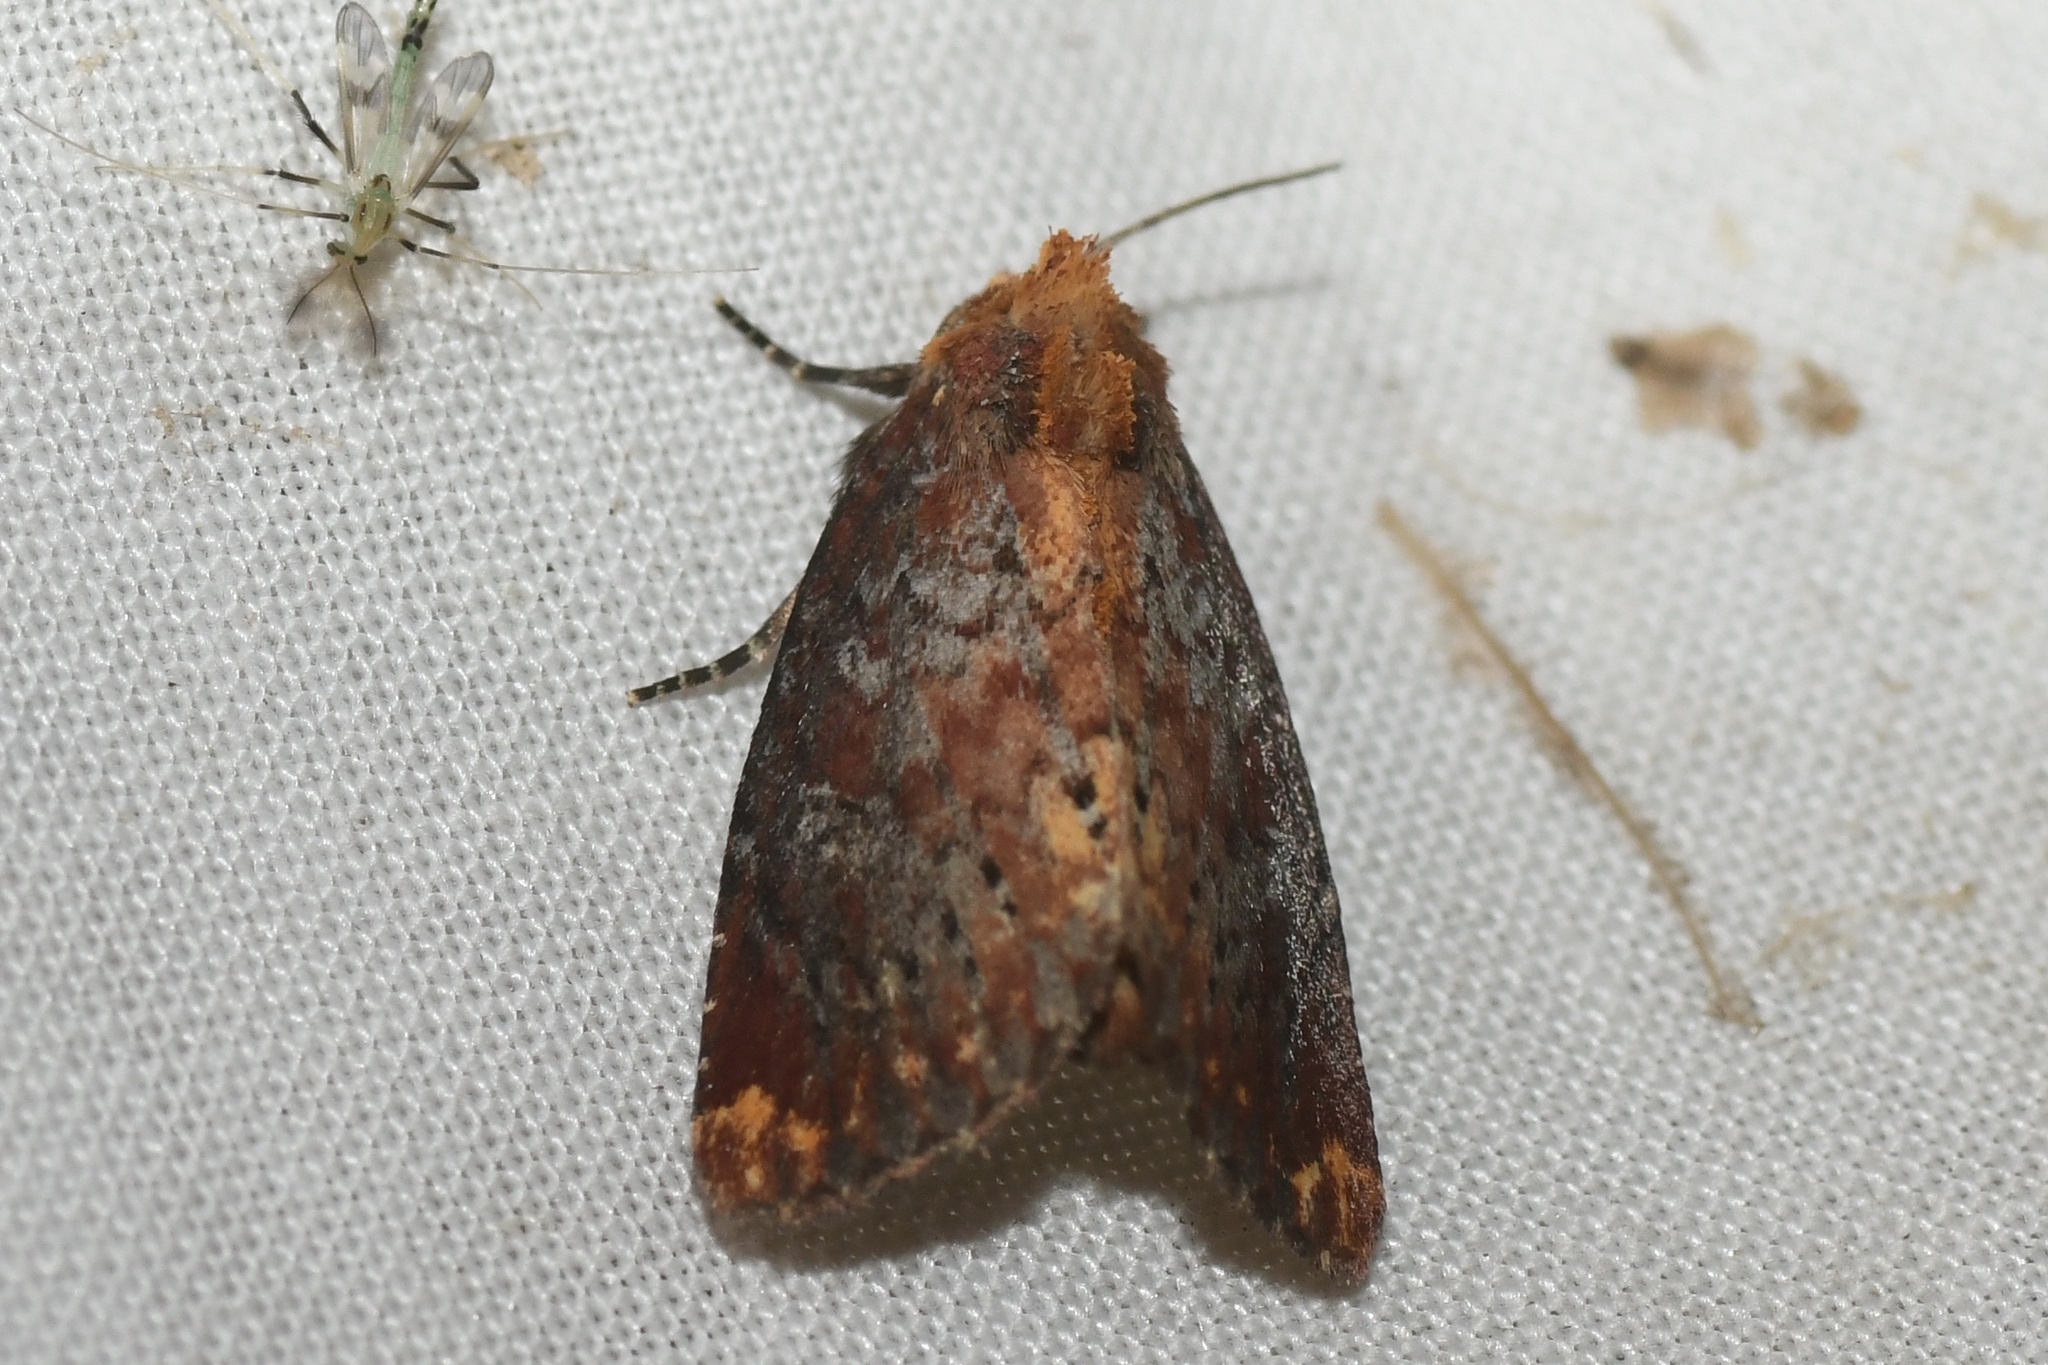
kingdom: Animalia
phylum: Arthropoda
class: Insecta
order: Lepidoptera
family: Noctuidae
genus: Achatodes
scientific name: Achatodes zeae
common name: Elder shoot borer
